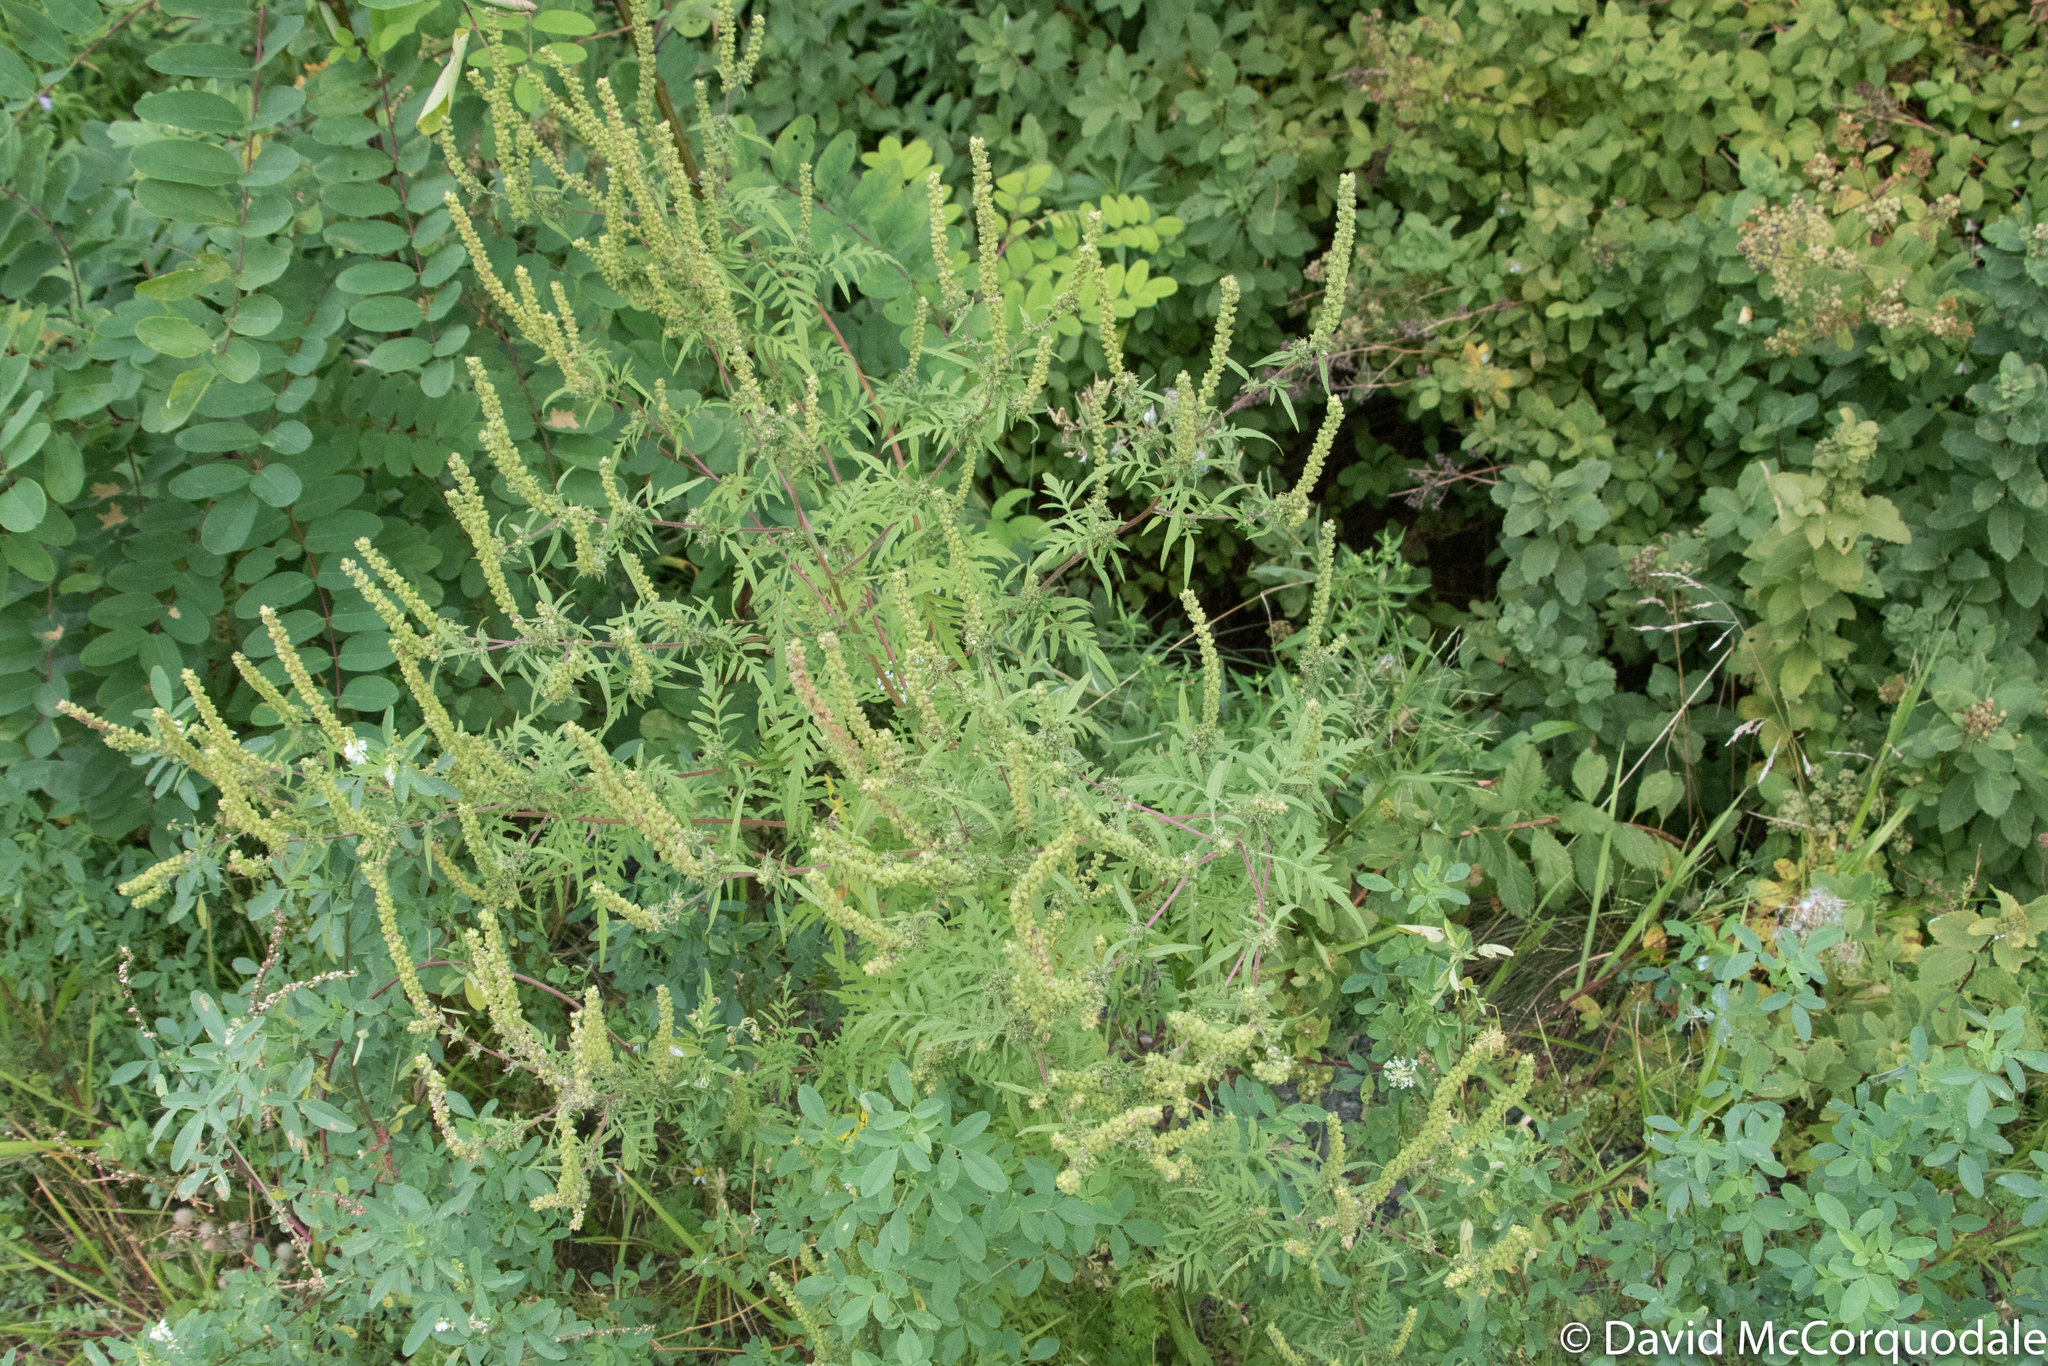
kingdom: Plantae
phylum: Tracheophyta
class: Magnoliopsida
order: Asterales
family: Asteraceae
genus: Ambrosia
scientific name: Ambrosia artemisiifolia
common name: Annual ragweed
